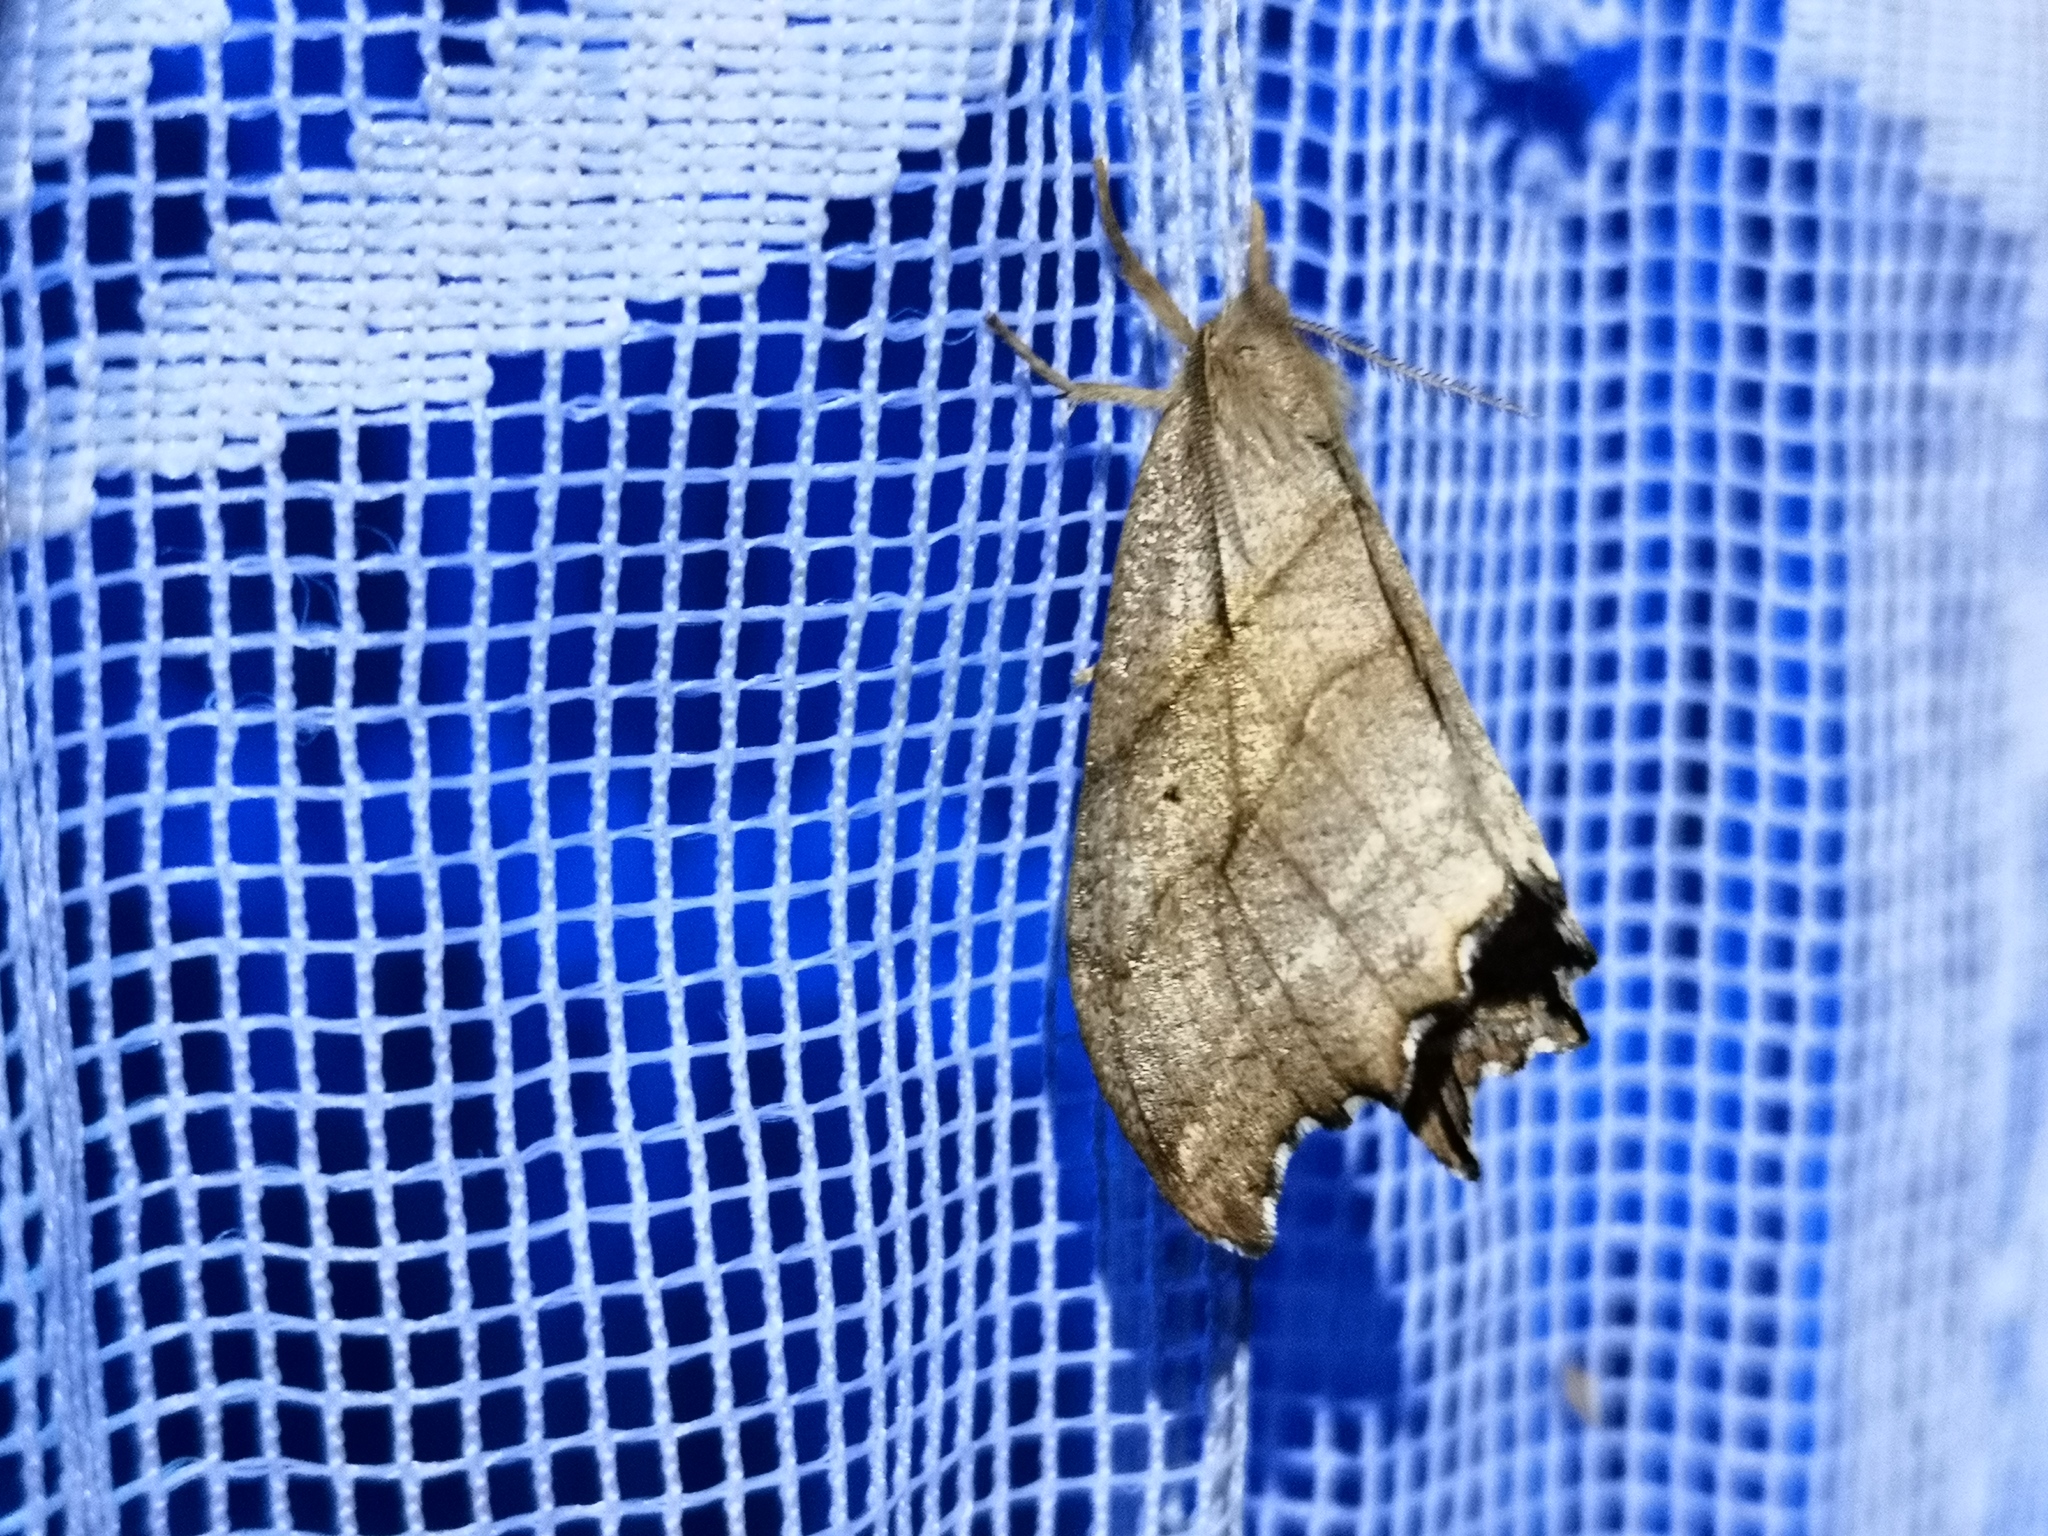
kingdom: Animalia
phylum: Arthropoda
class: Insecta
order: Lepidoptera
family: Drepanidae
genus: Falcaria
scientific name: Falcaria lacertinaria
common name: Scalloped hook-tip
